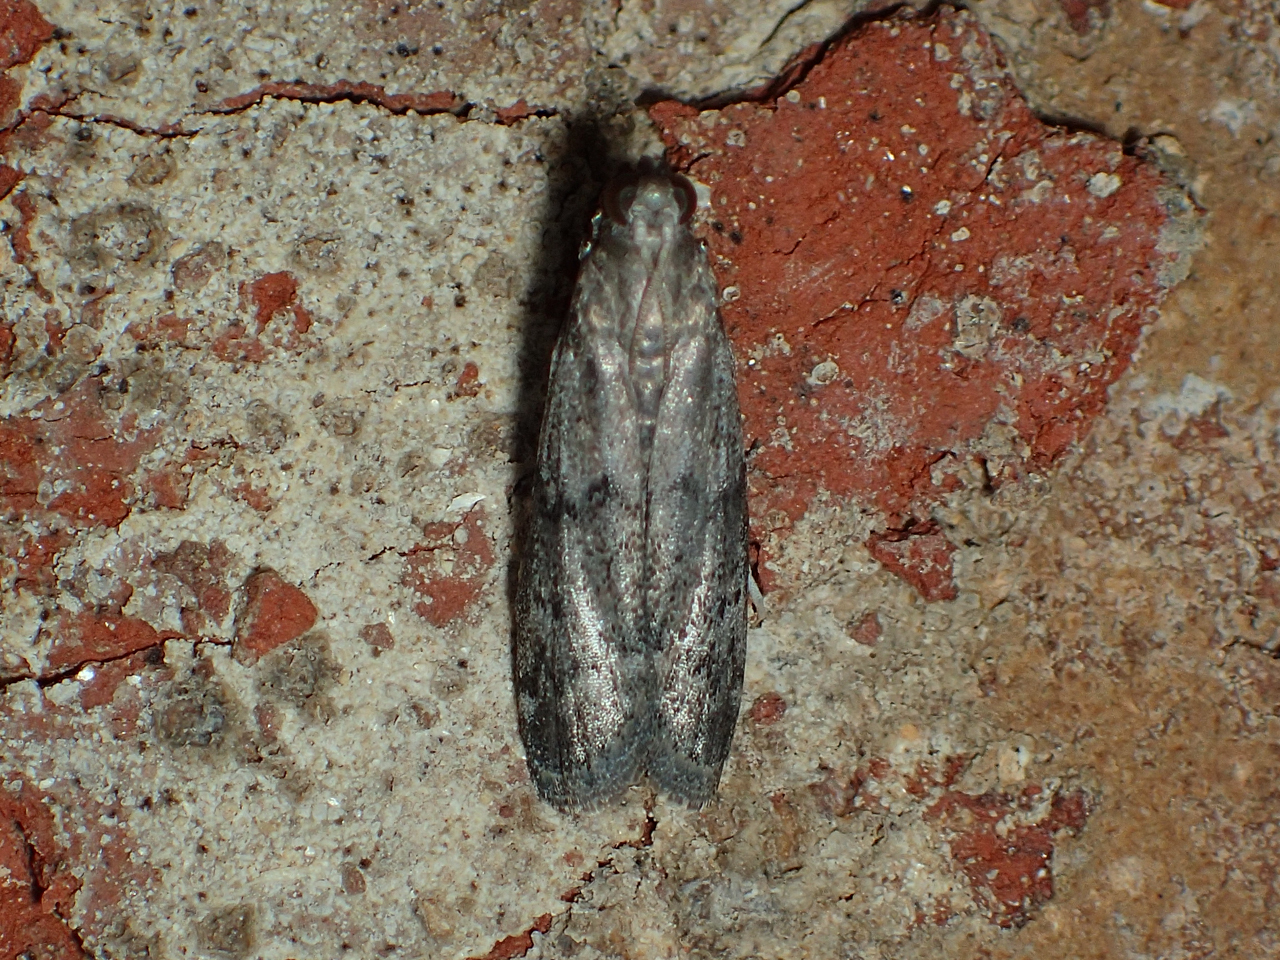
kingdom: Animalia
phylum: Arthropoda
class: Insecta
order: Lepidoptera
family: Pyralidae
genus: Vitula
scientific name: Vitula edmandsii
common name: Dried fruit moth
